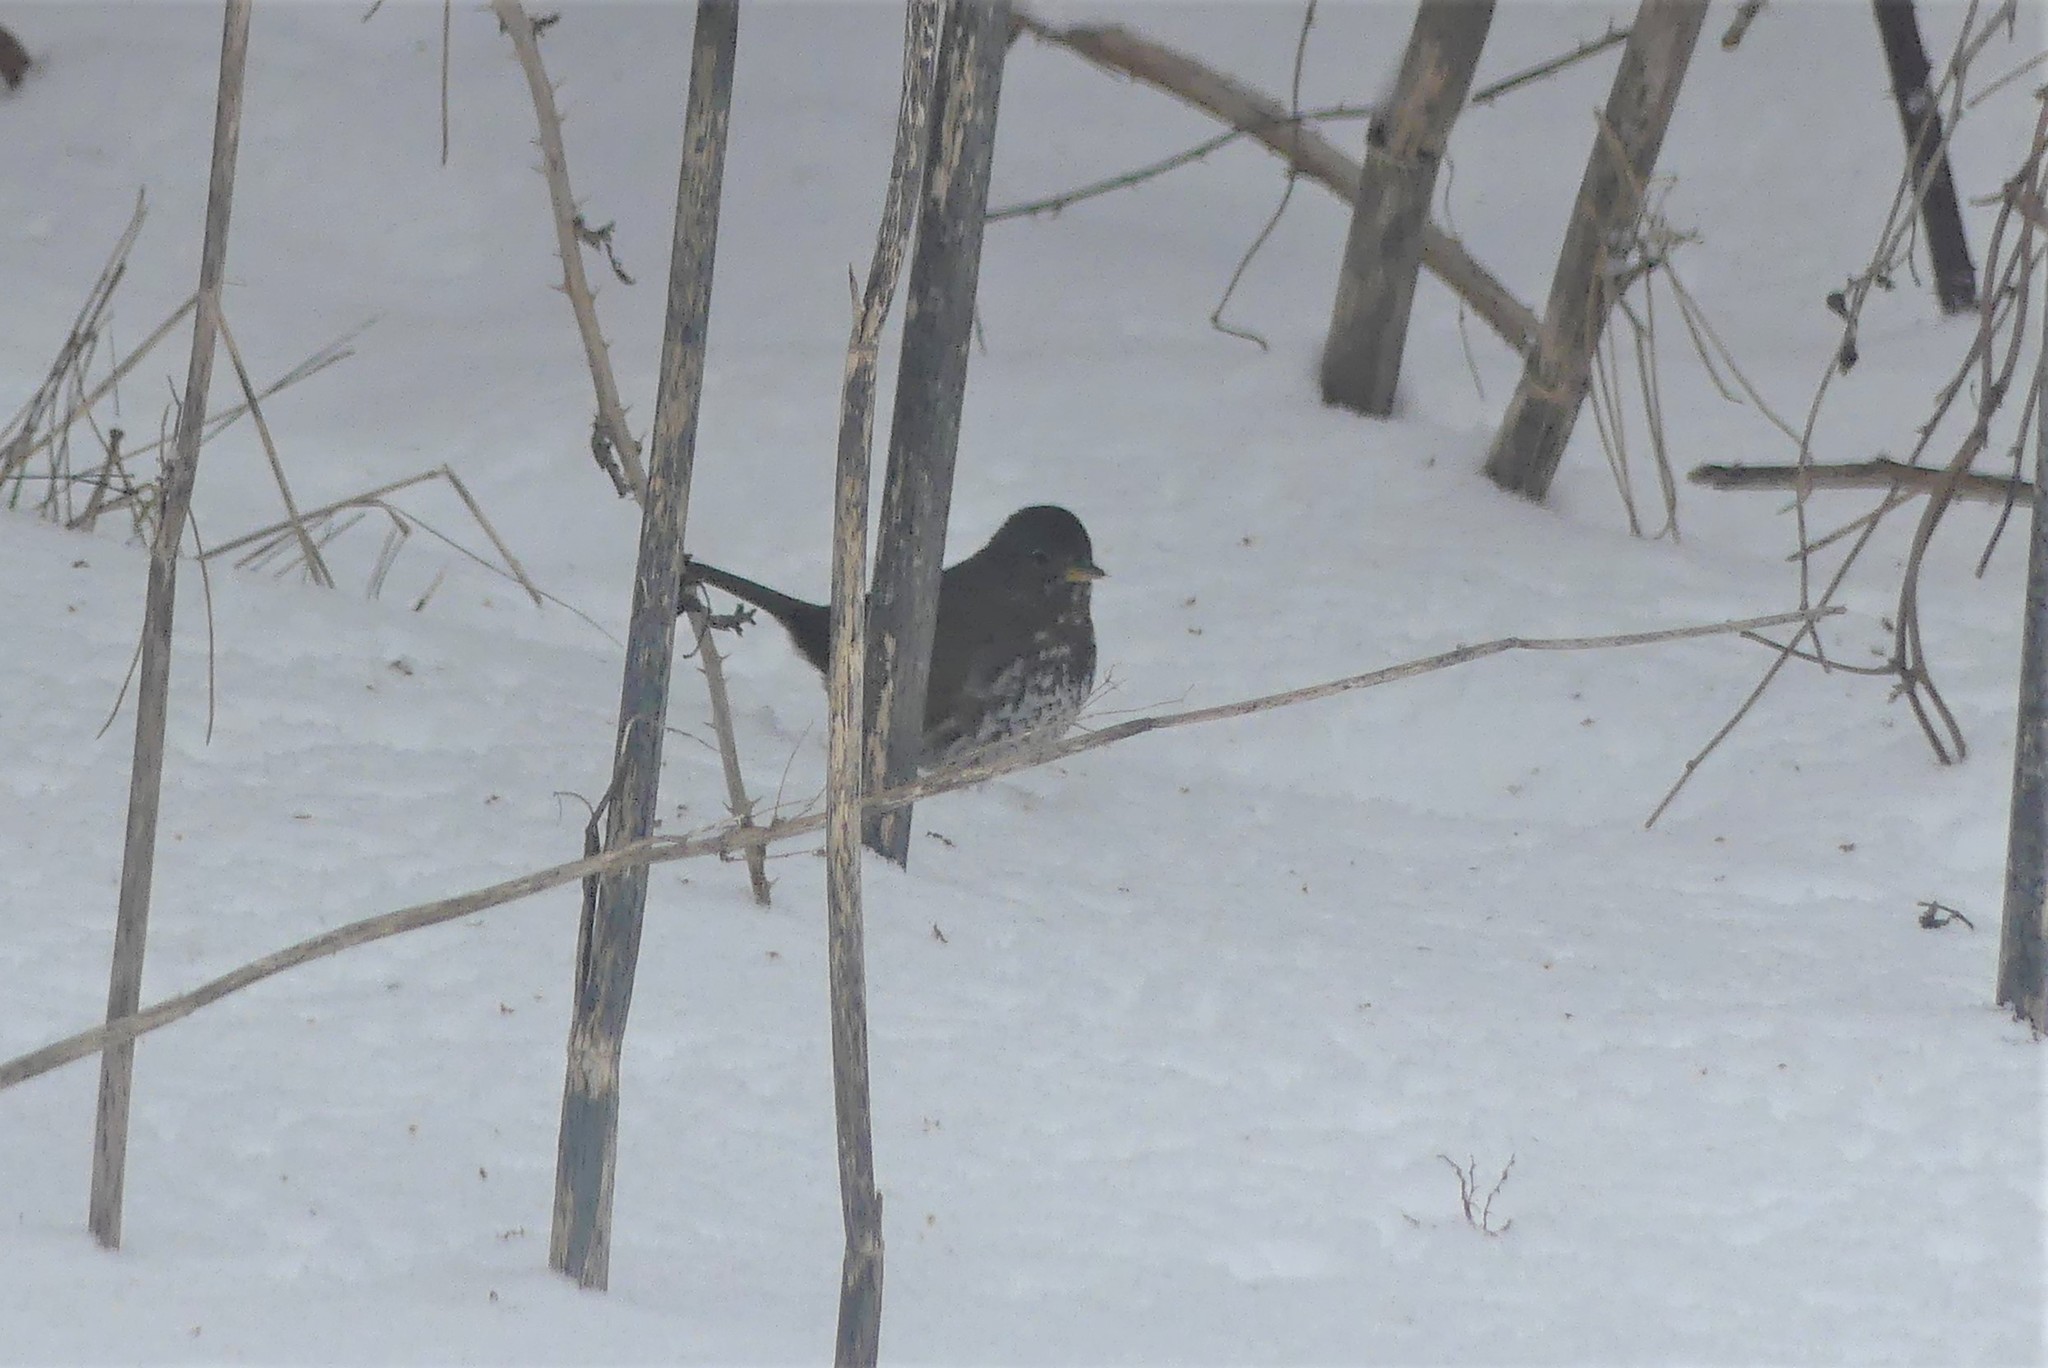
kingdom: Animalia
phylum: Chordata
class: Aves
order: Passeriformes
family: Passerellidae
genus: Passerella
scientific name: Passerella iliaca
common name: Fox sparrow
